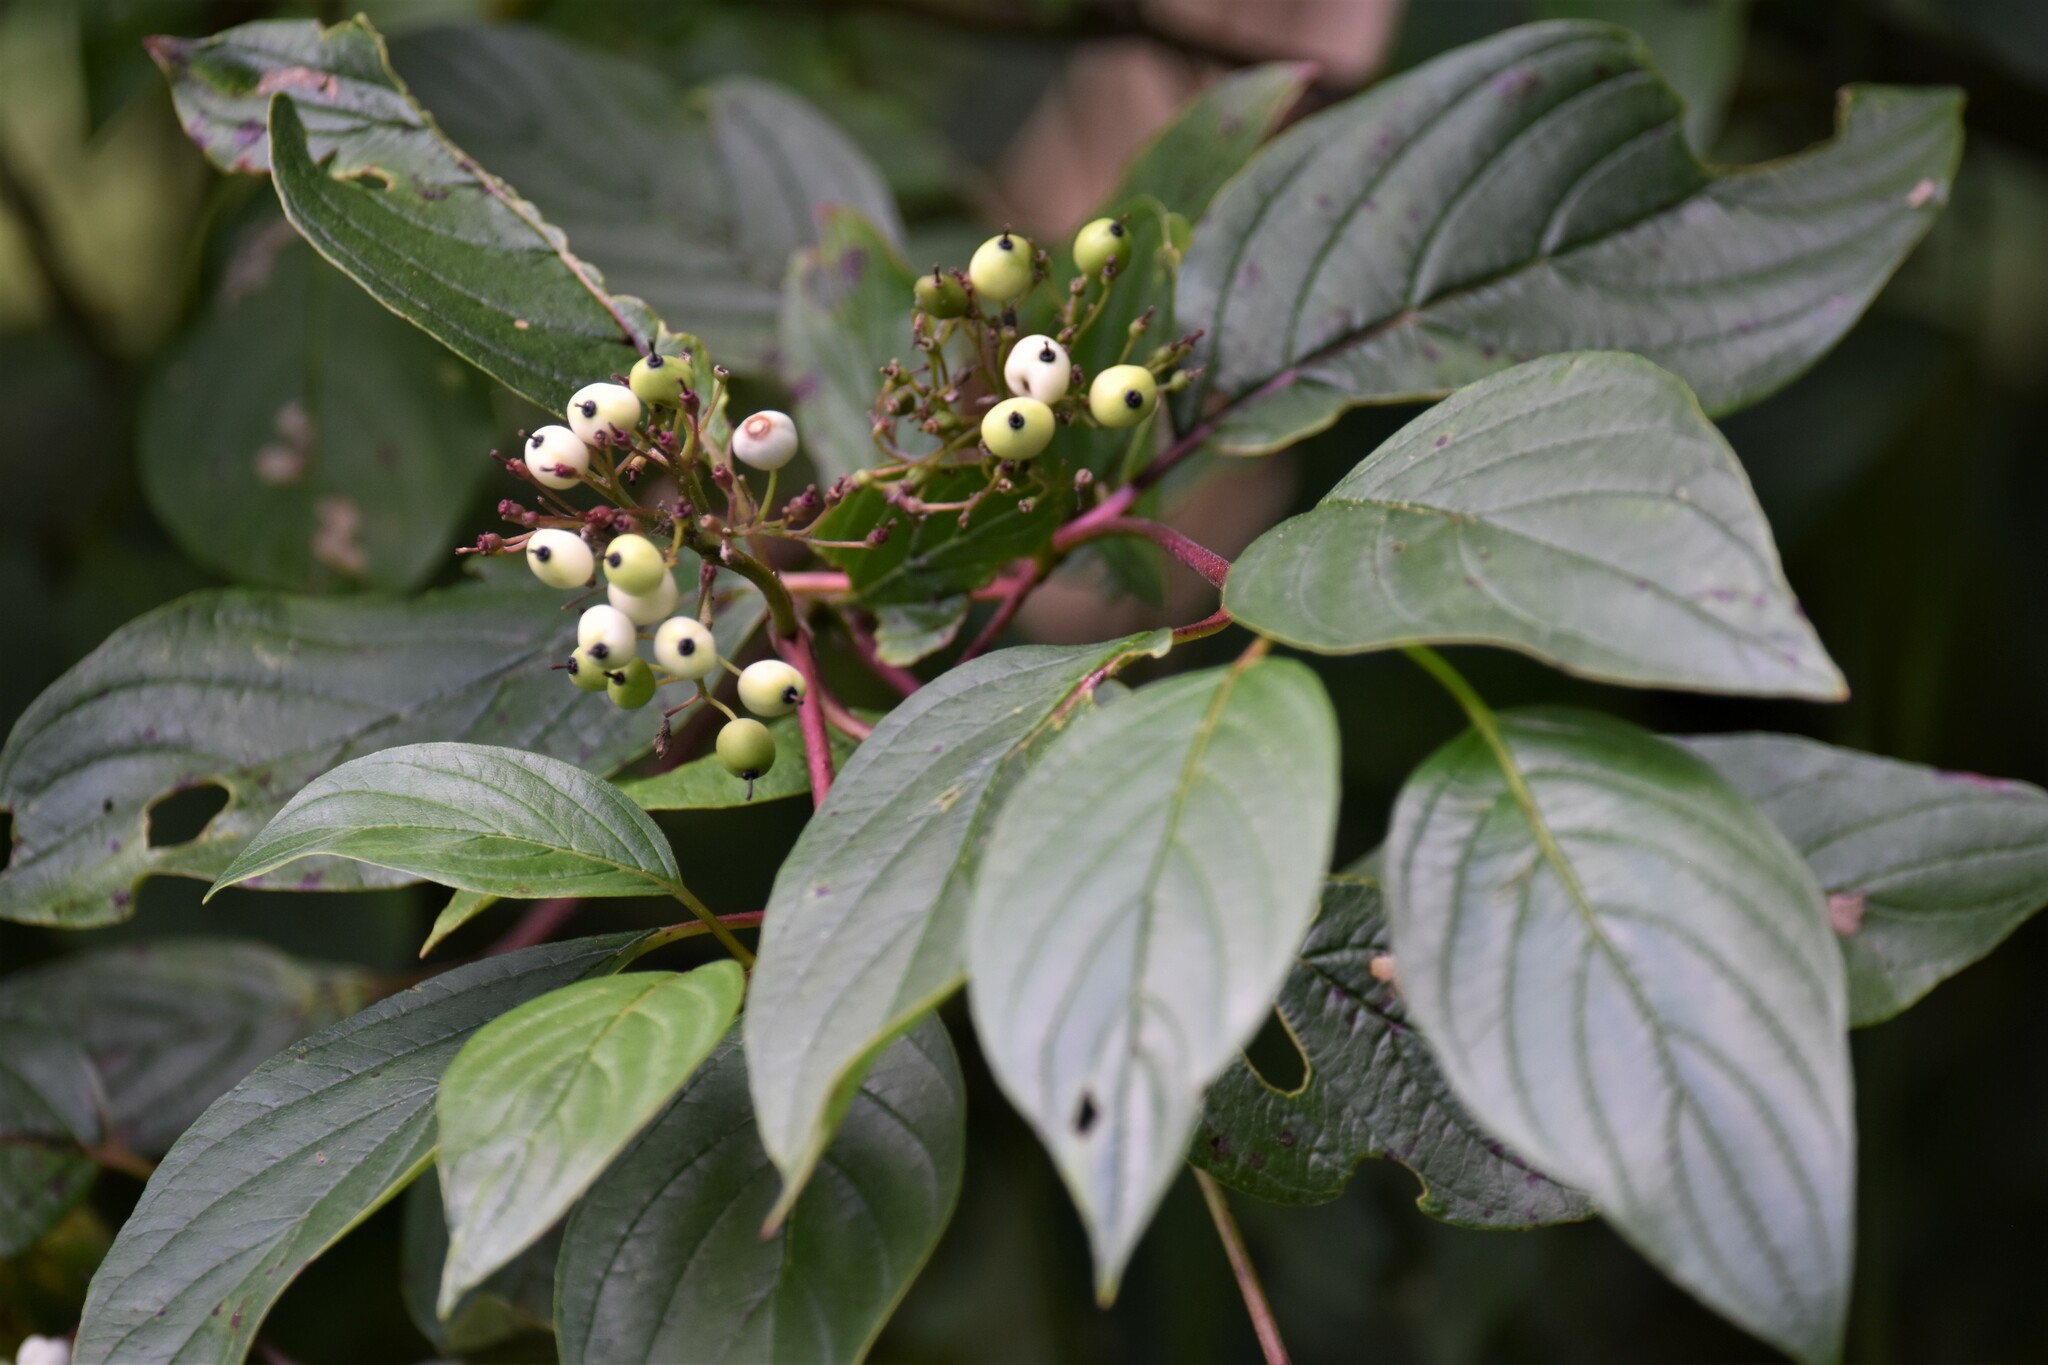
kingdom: Plantae
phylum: Tracheophyta
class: Magnoliopsida
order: Cornales
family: Cornaceae
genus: Cornus
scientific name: Cornus sericea
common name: Red-osier dogwood
